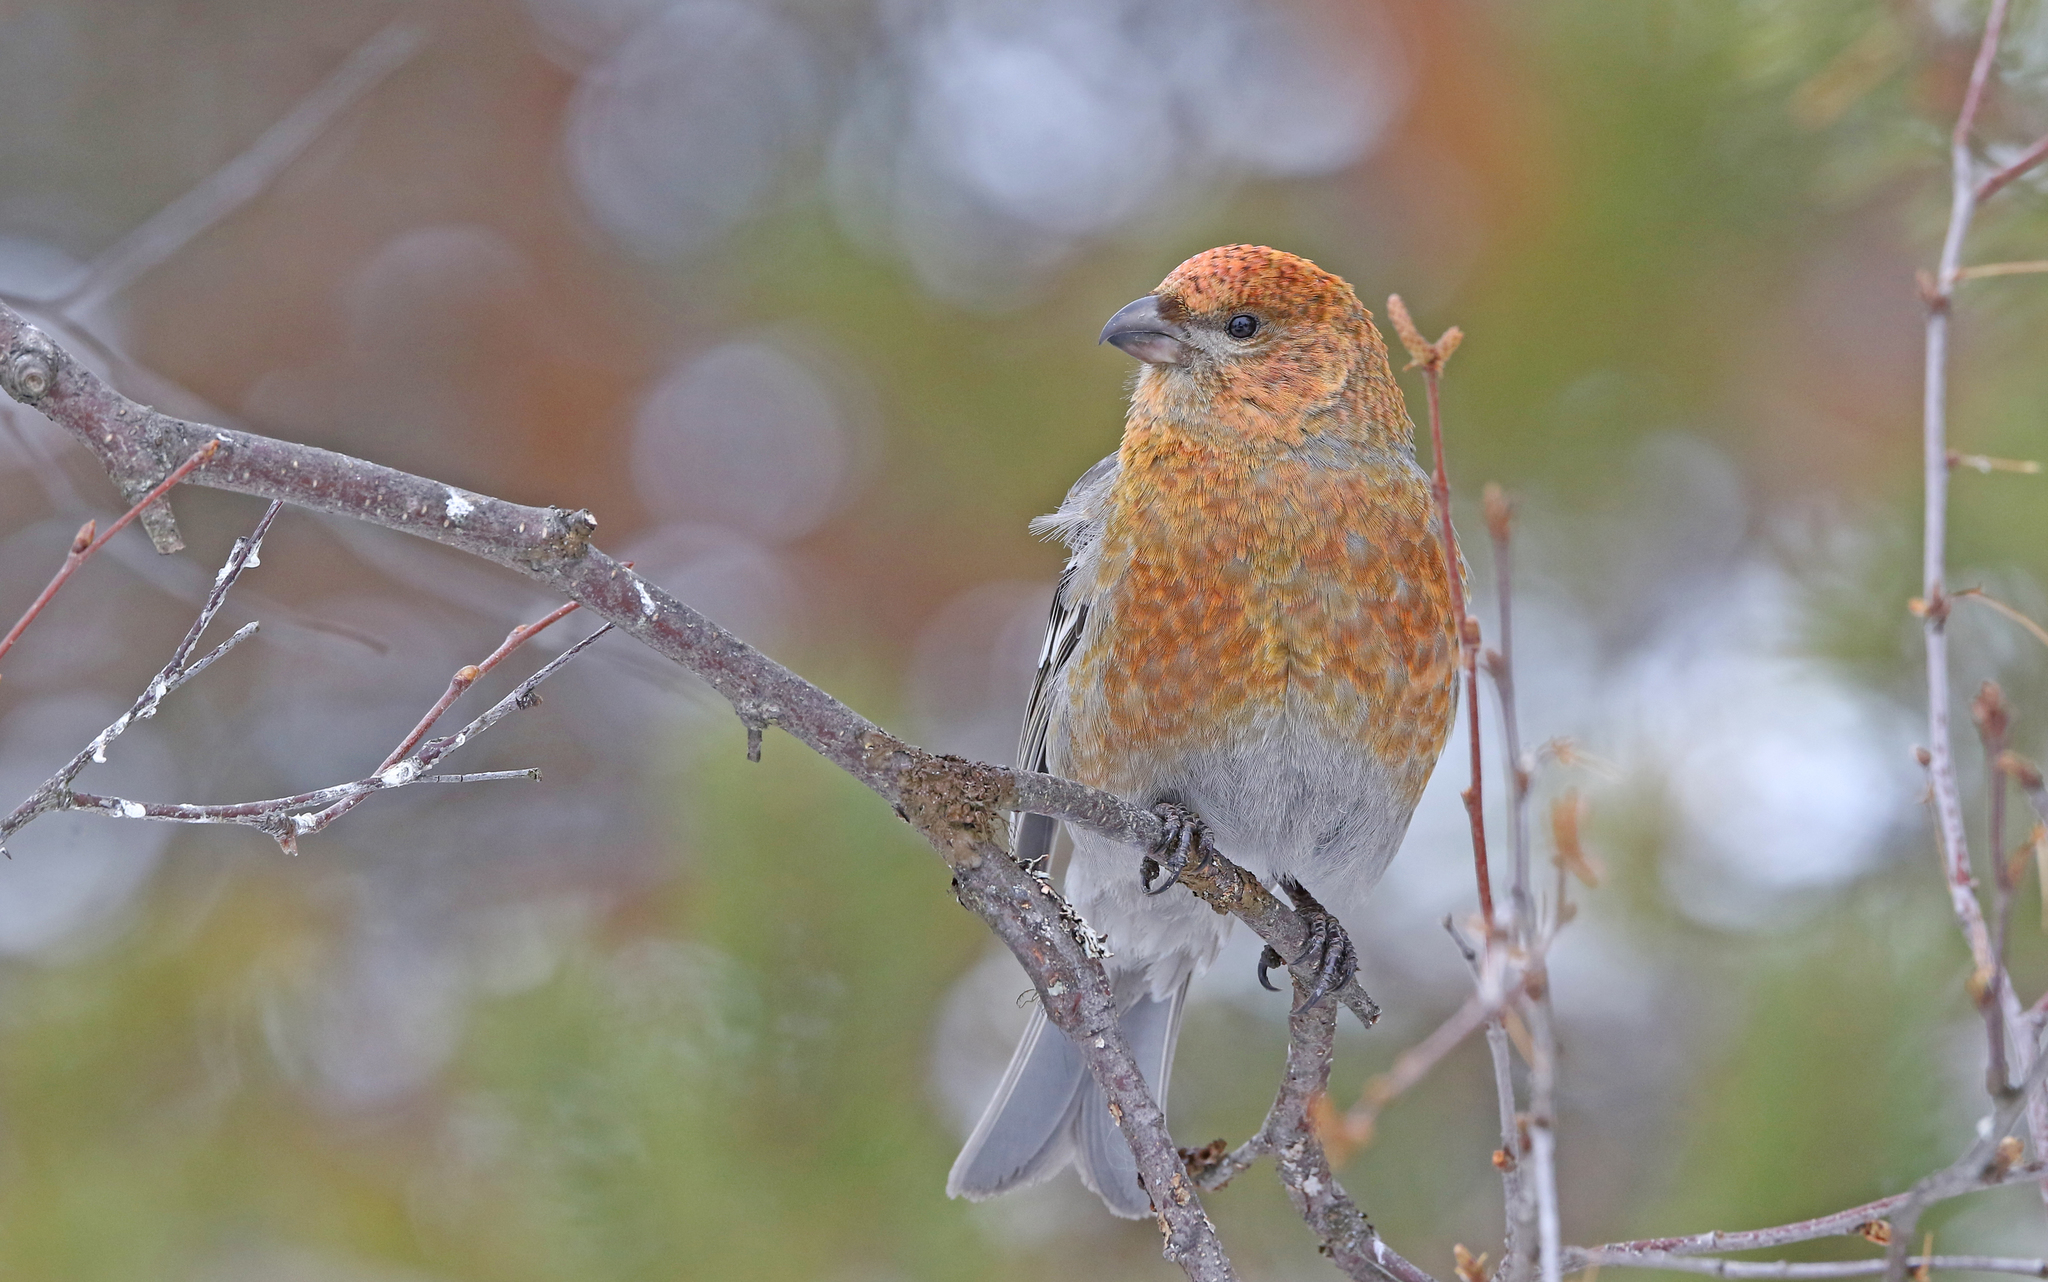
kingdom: Animalia
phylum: Chordata
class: Aves
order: Passeriformes
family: Fringillidae
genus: Pinicola
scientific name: Pinicola enucleator
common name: Pine grosbeak
